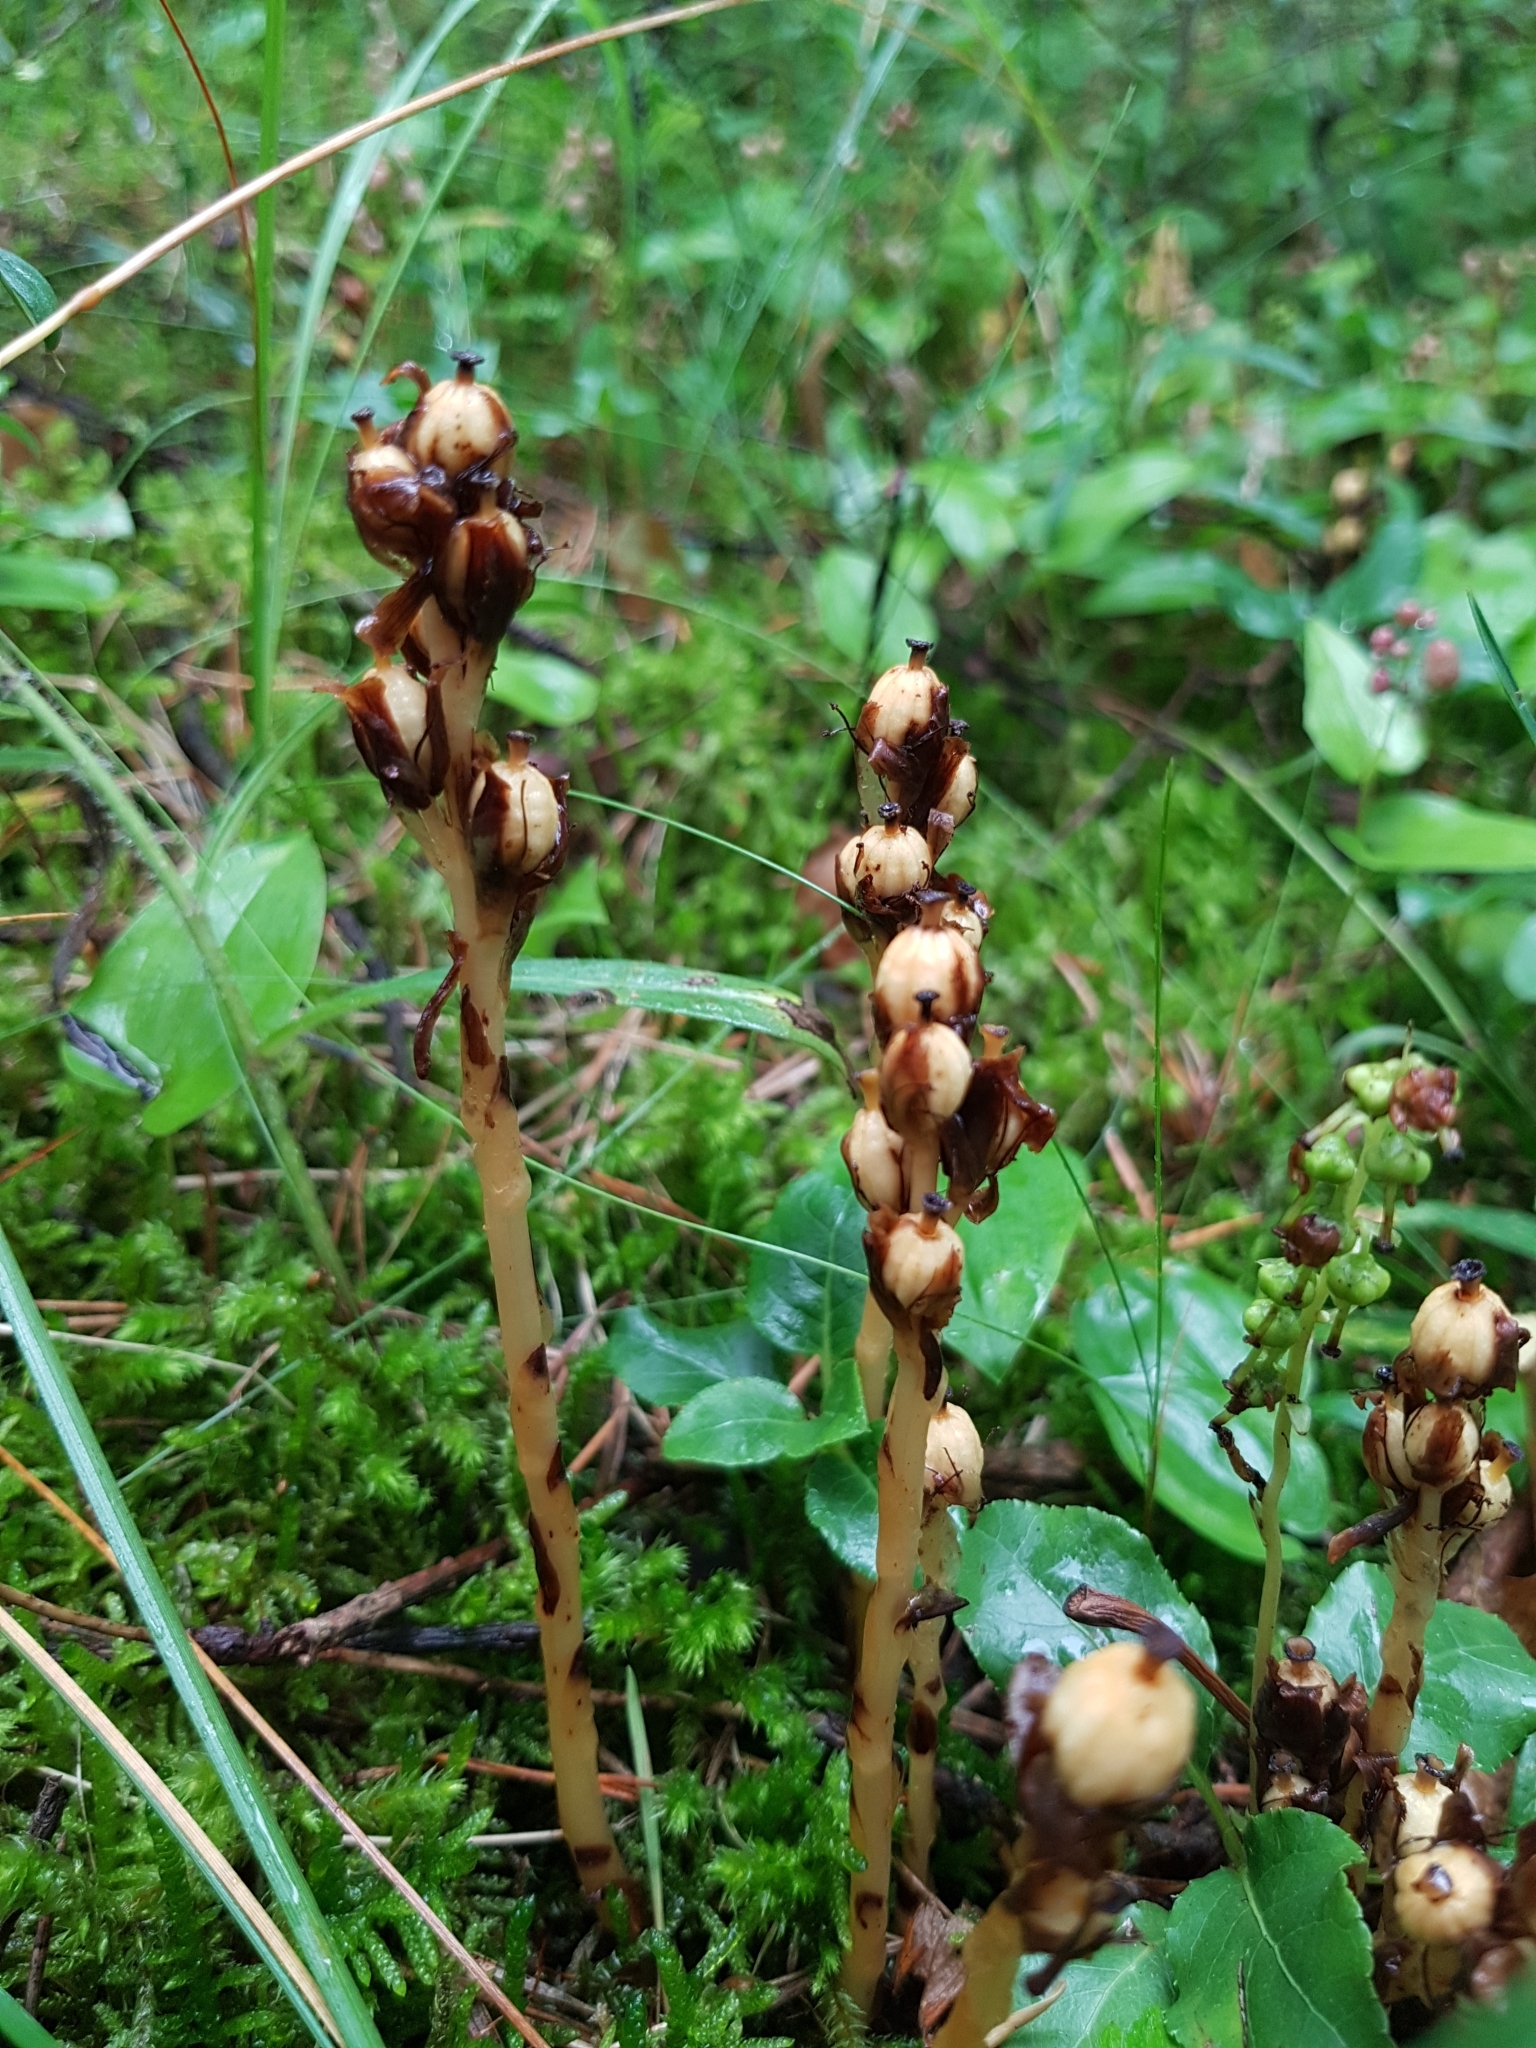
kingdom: Plantae
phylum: Tracheophyta
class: Magnoliopsida
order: Ericales
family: Ericaceae
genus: Hypopitys
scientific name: Hypopitys monotropa
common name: Yellow bird's-nest
